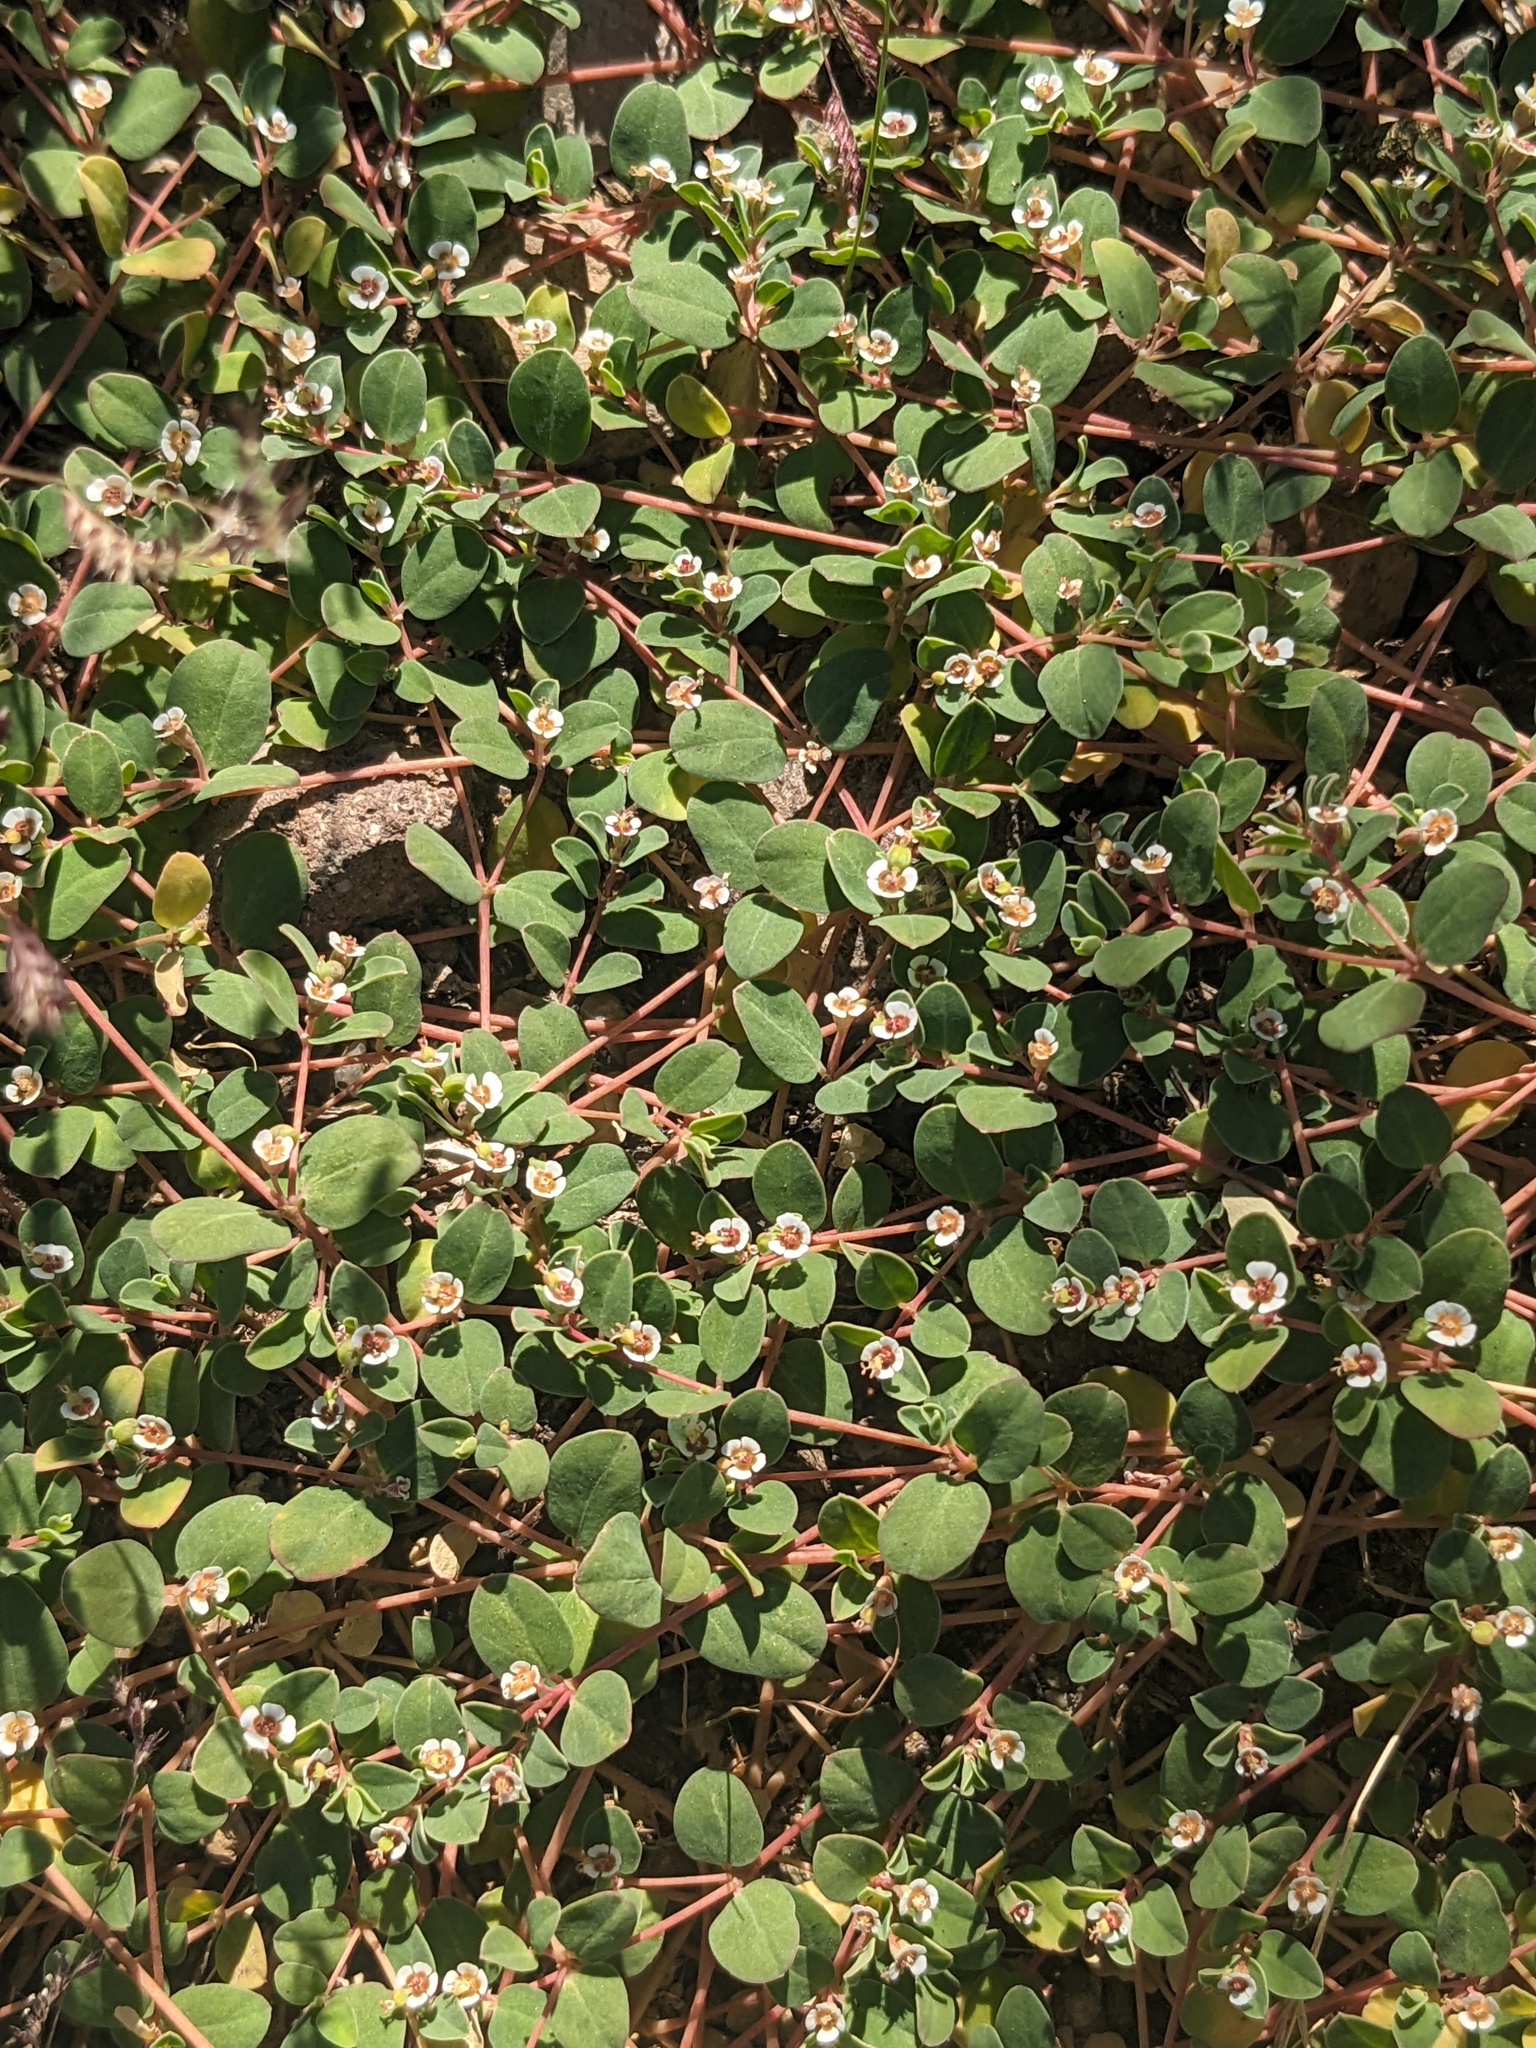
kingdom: Plantae
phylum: Tracheophyta
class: Magnoliopsida
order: Malpighiales
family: Euphorbiaceae
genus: Euphorbia
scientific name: Euphorbia albomarginata
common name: Whitemargin sandmat
